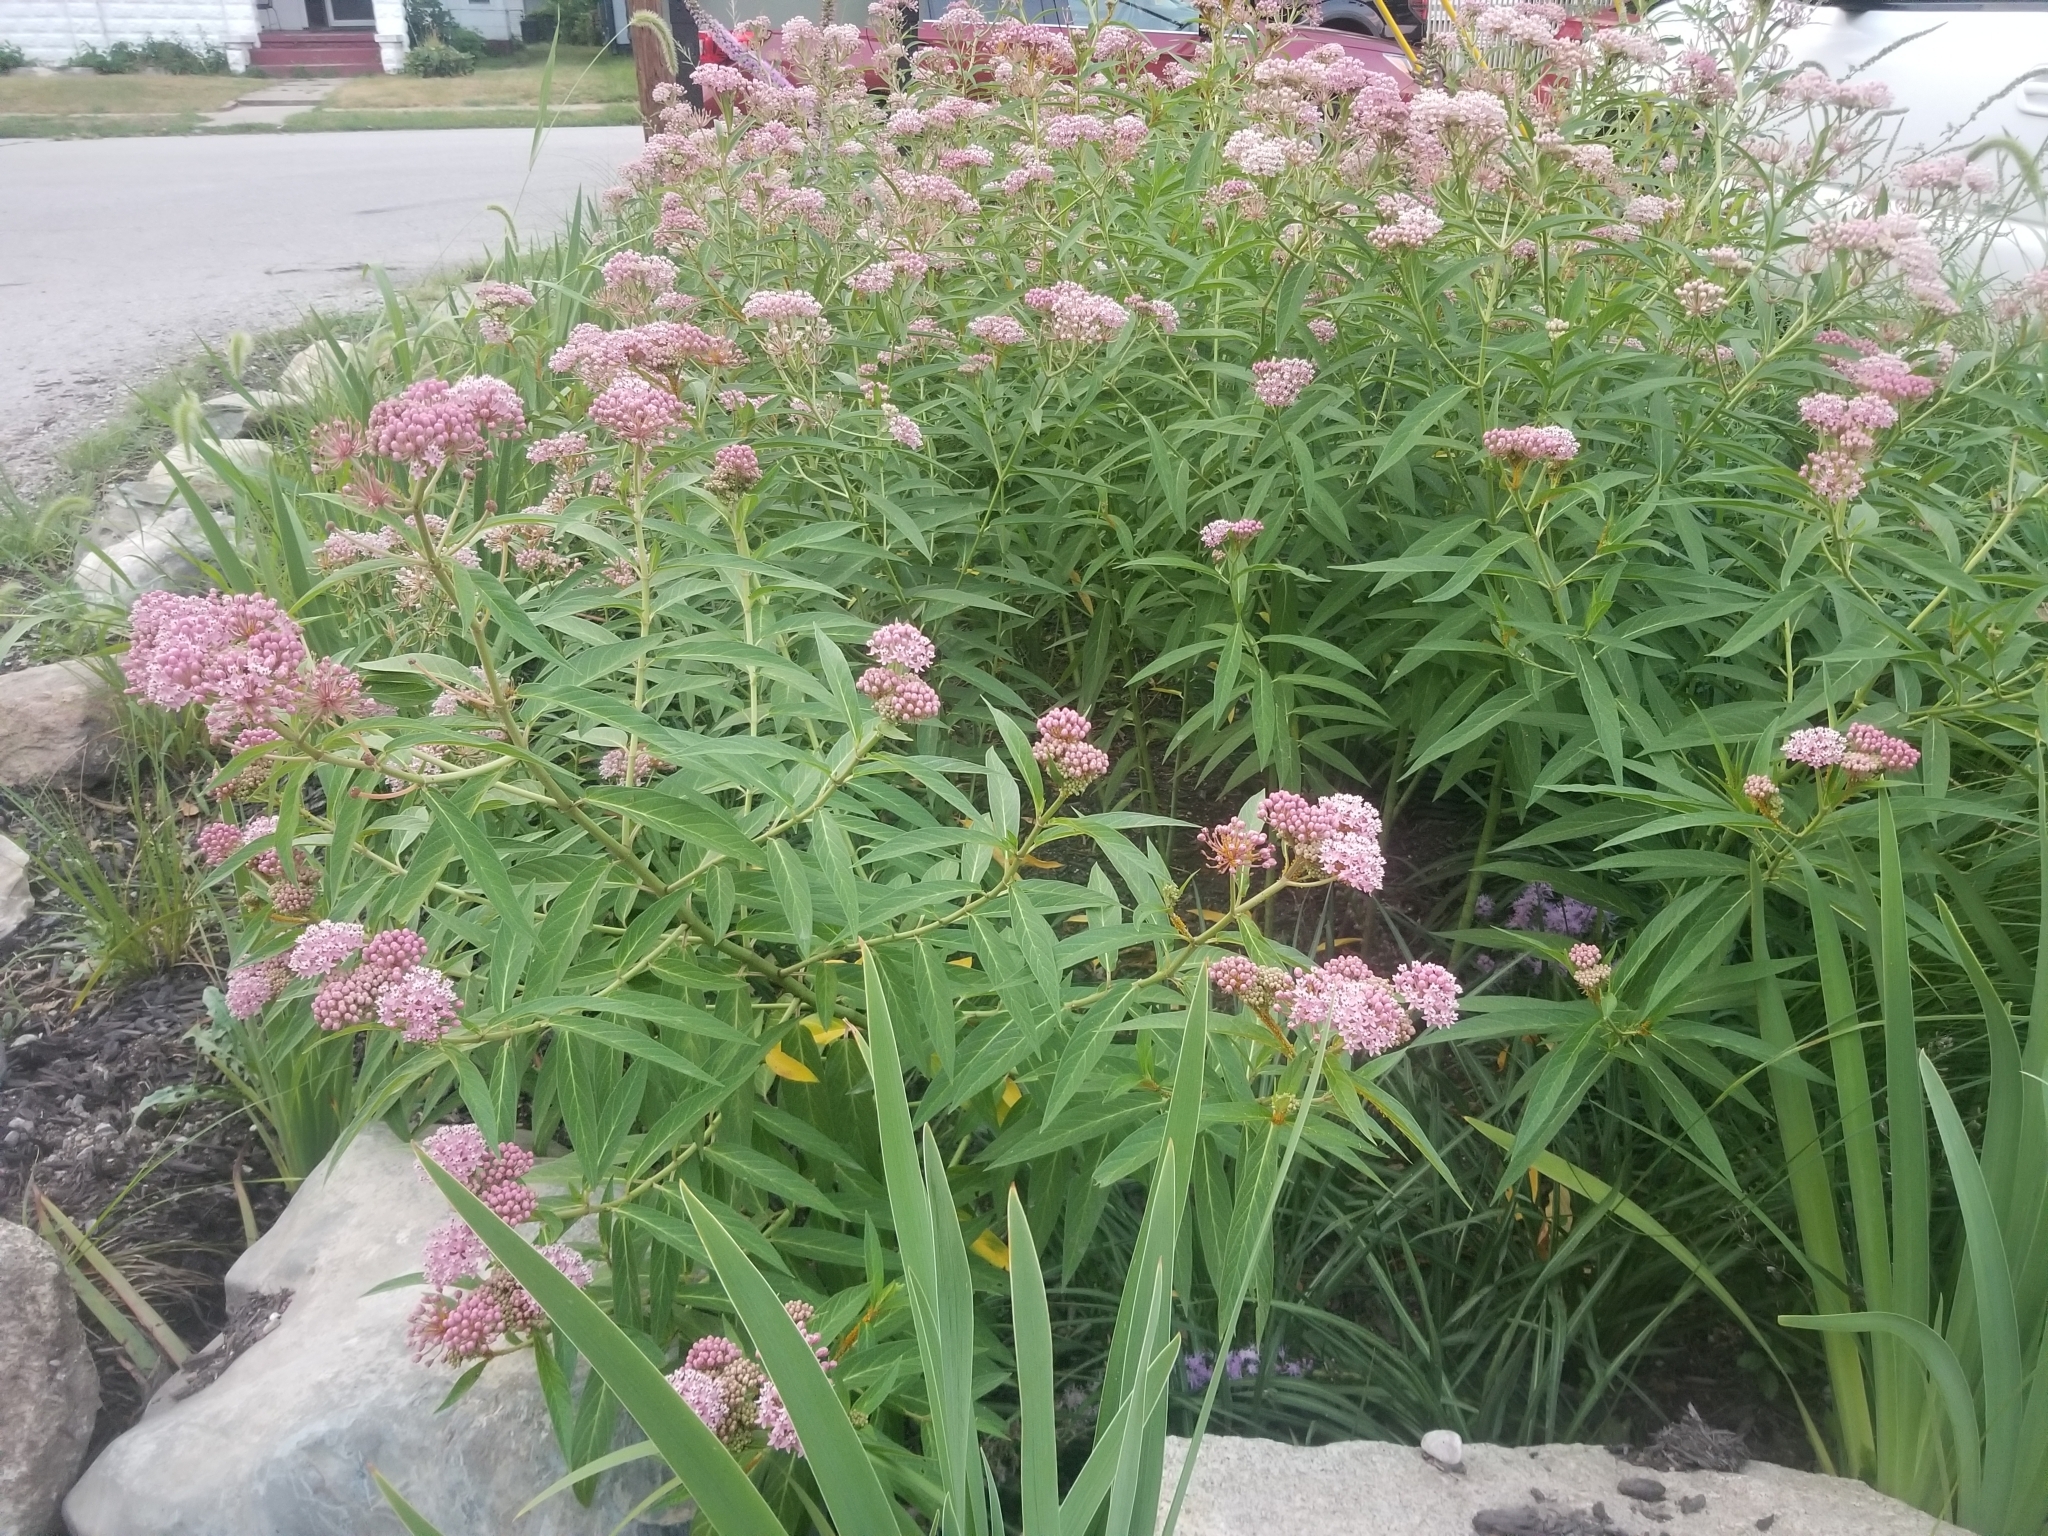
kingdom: Plantae
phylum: Tracheophyta
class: Magnoliopsida
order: Gentianales
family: Apocynaceae
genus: Asclepias
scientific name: Asclepias incarnata
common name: Swamp milkweed
